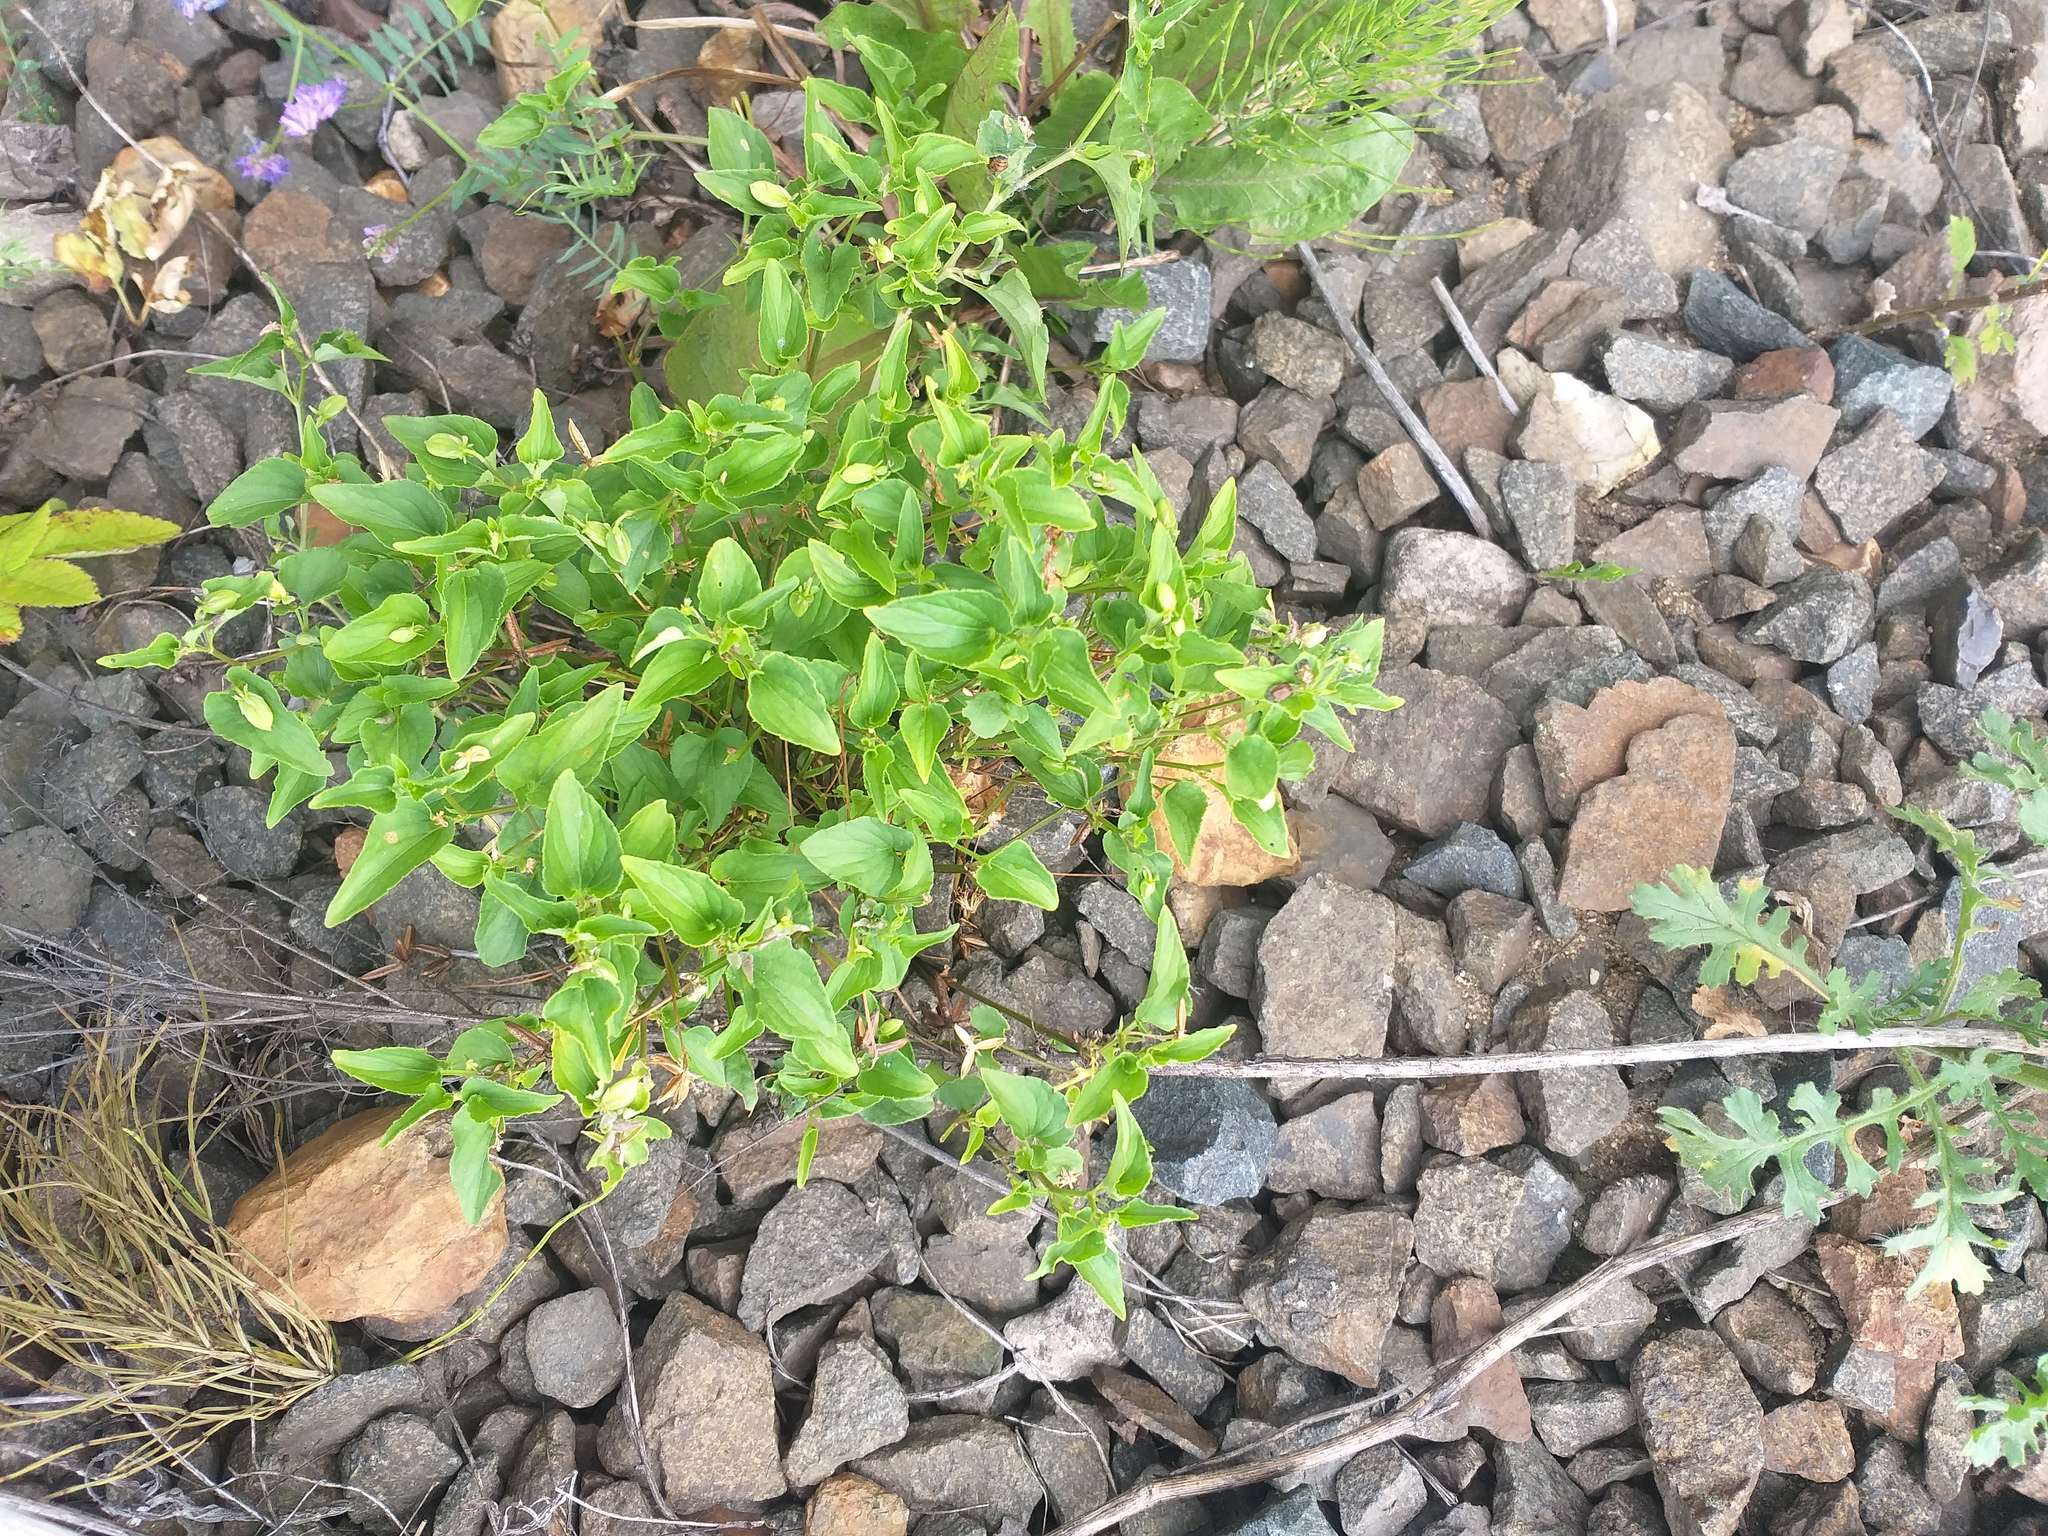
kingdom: Plantae
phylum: Tracheophyta
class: Magnoliopsida
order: Malpighiales
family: Violaceae
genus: Viola
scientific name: Viola canina
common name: Heath dog-violet
